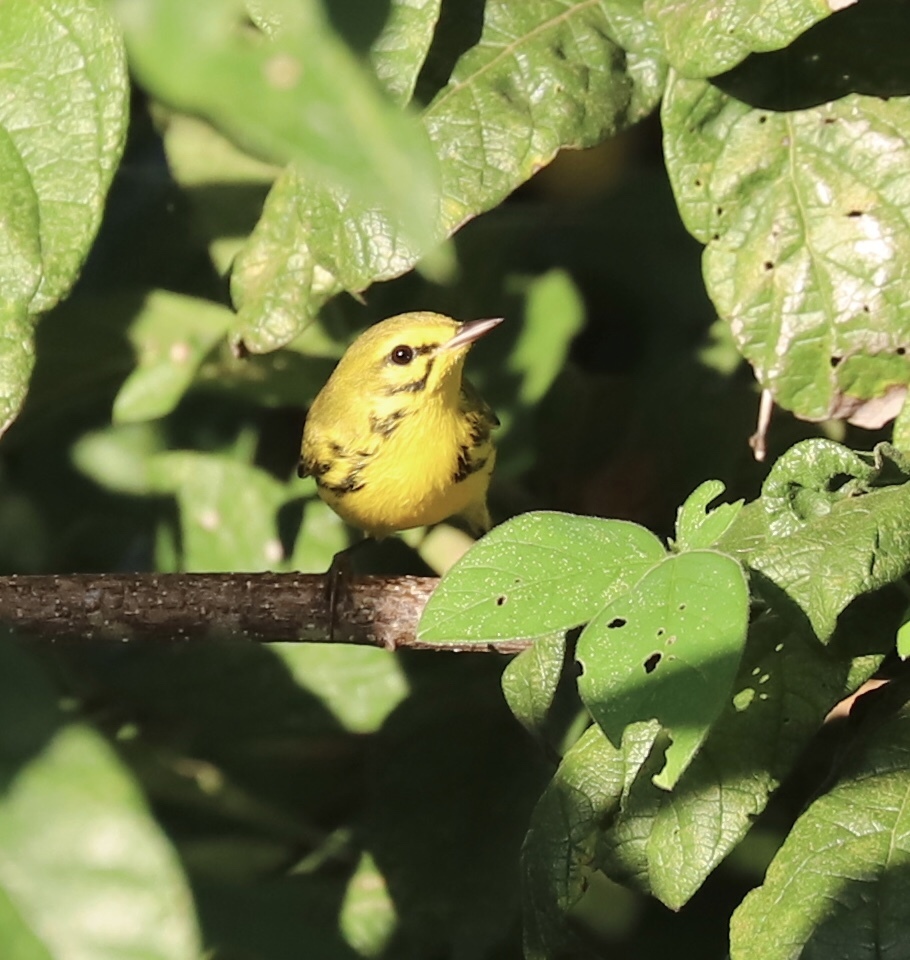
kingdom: Animalia
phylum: Chordata
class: Aves
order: Passeriformes
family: Parulidae
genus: Setophaga
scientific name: Setophaga discolor
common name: Prairie warbler
